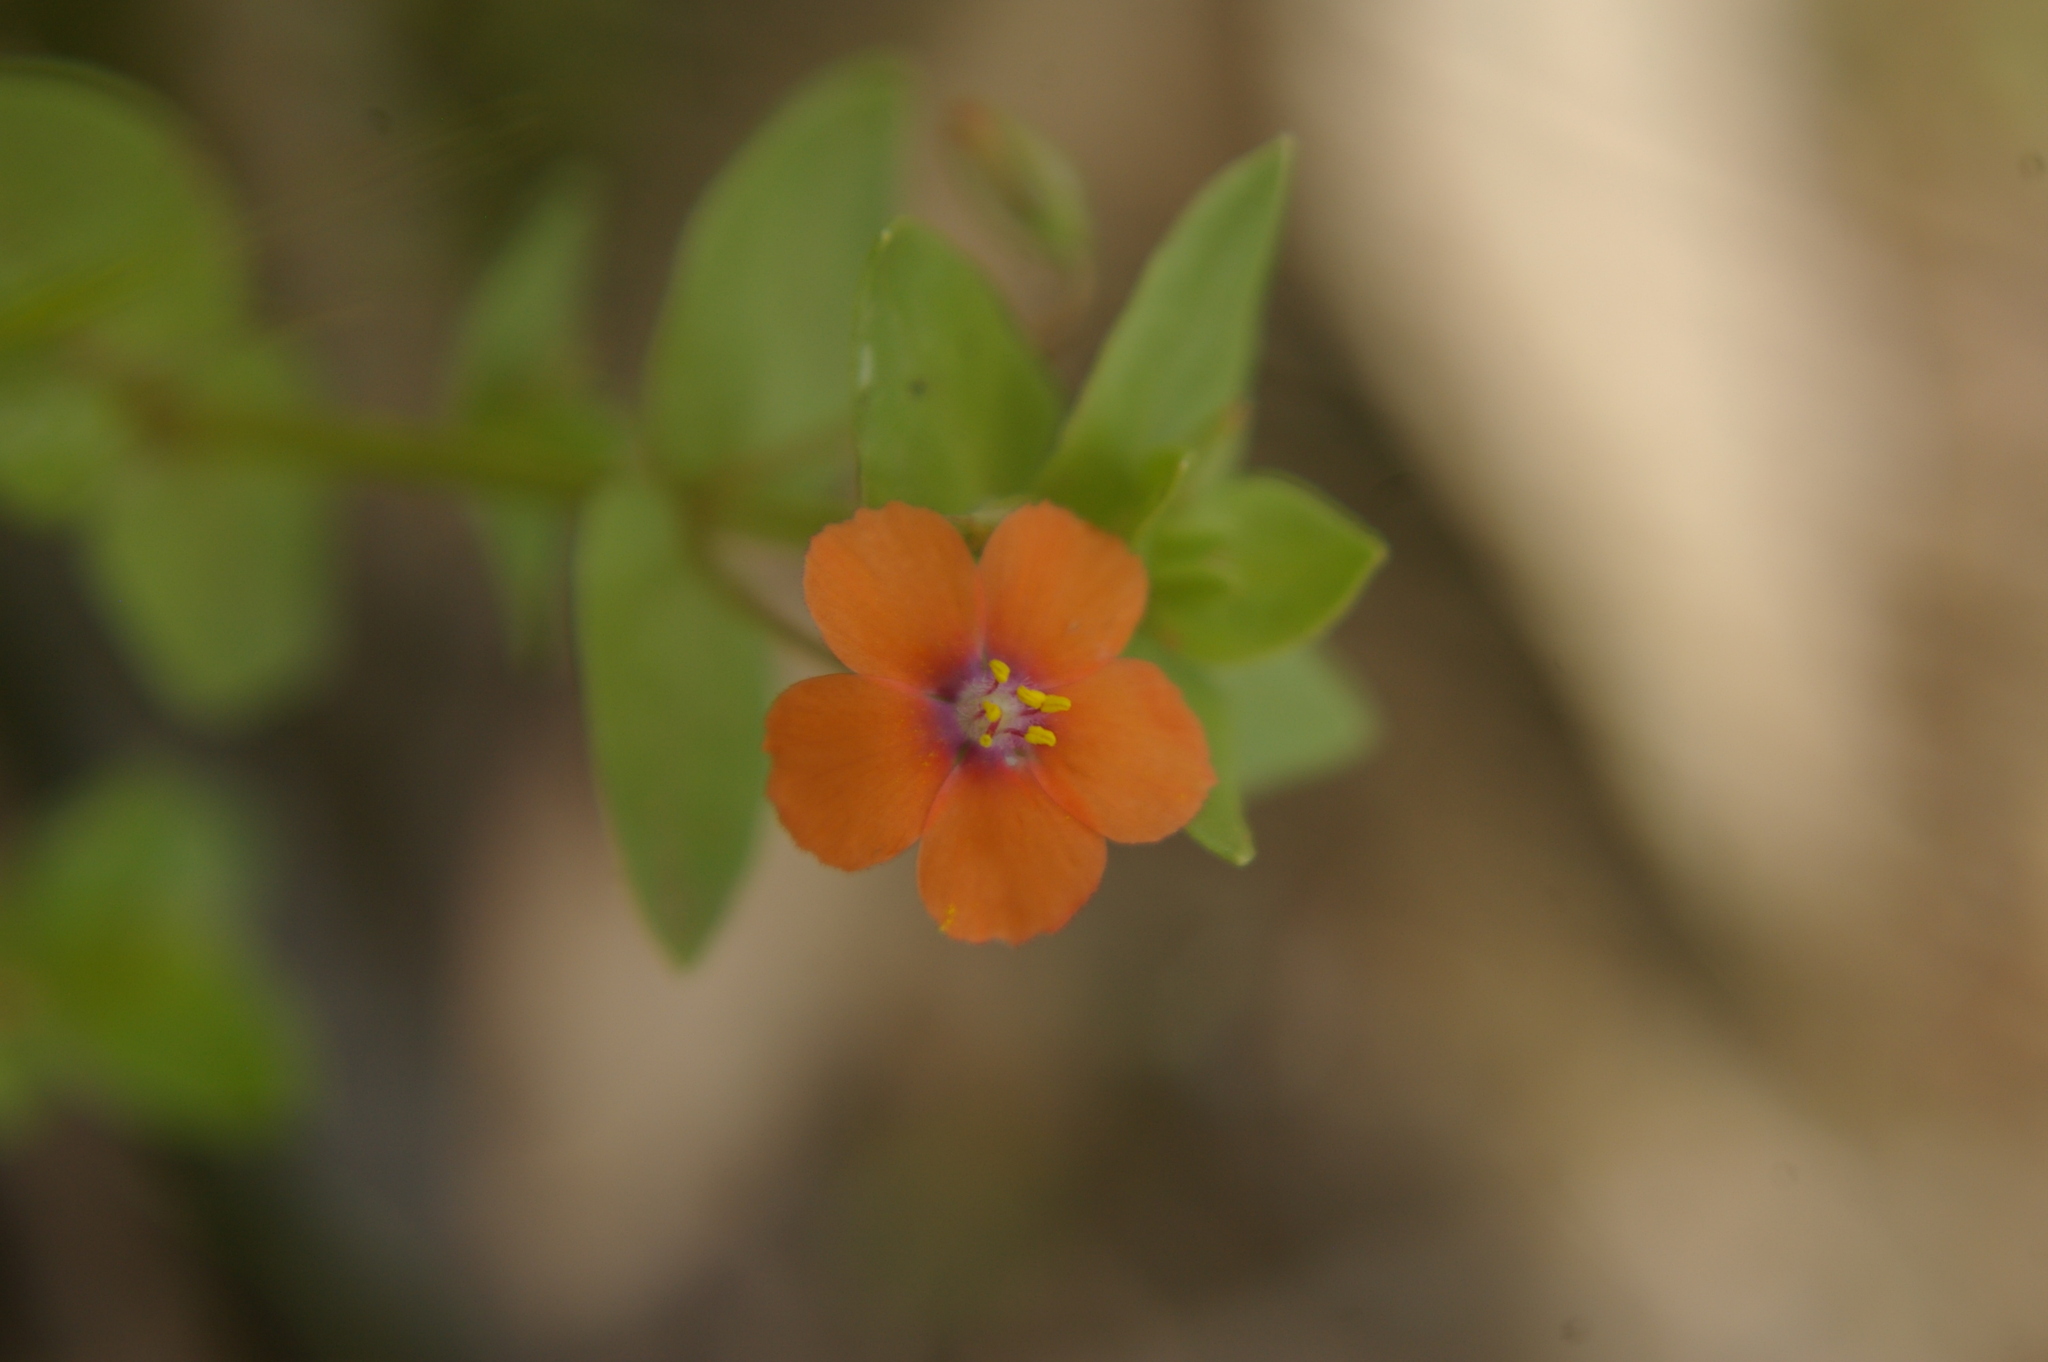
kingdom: Plantae
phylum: Tracheophyta
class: Magnoliopsida
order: Ericales
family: Primulaceae
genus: Lysimachia
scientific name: Lysimachia arvensis
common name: Scarlet pimpernel
